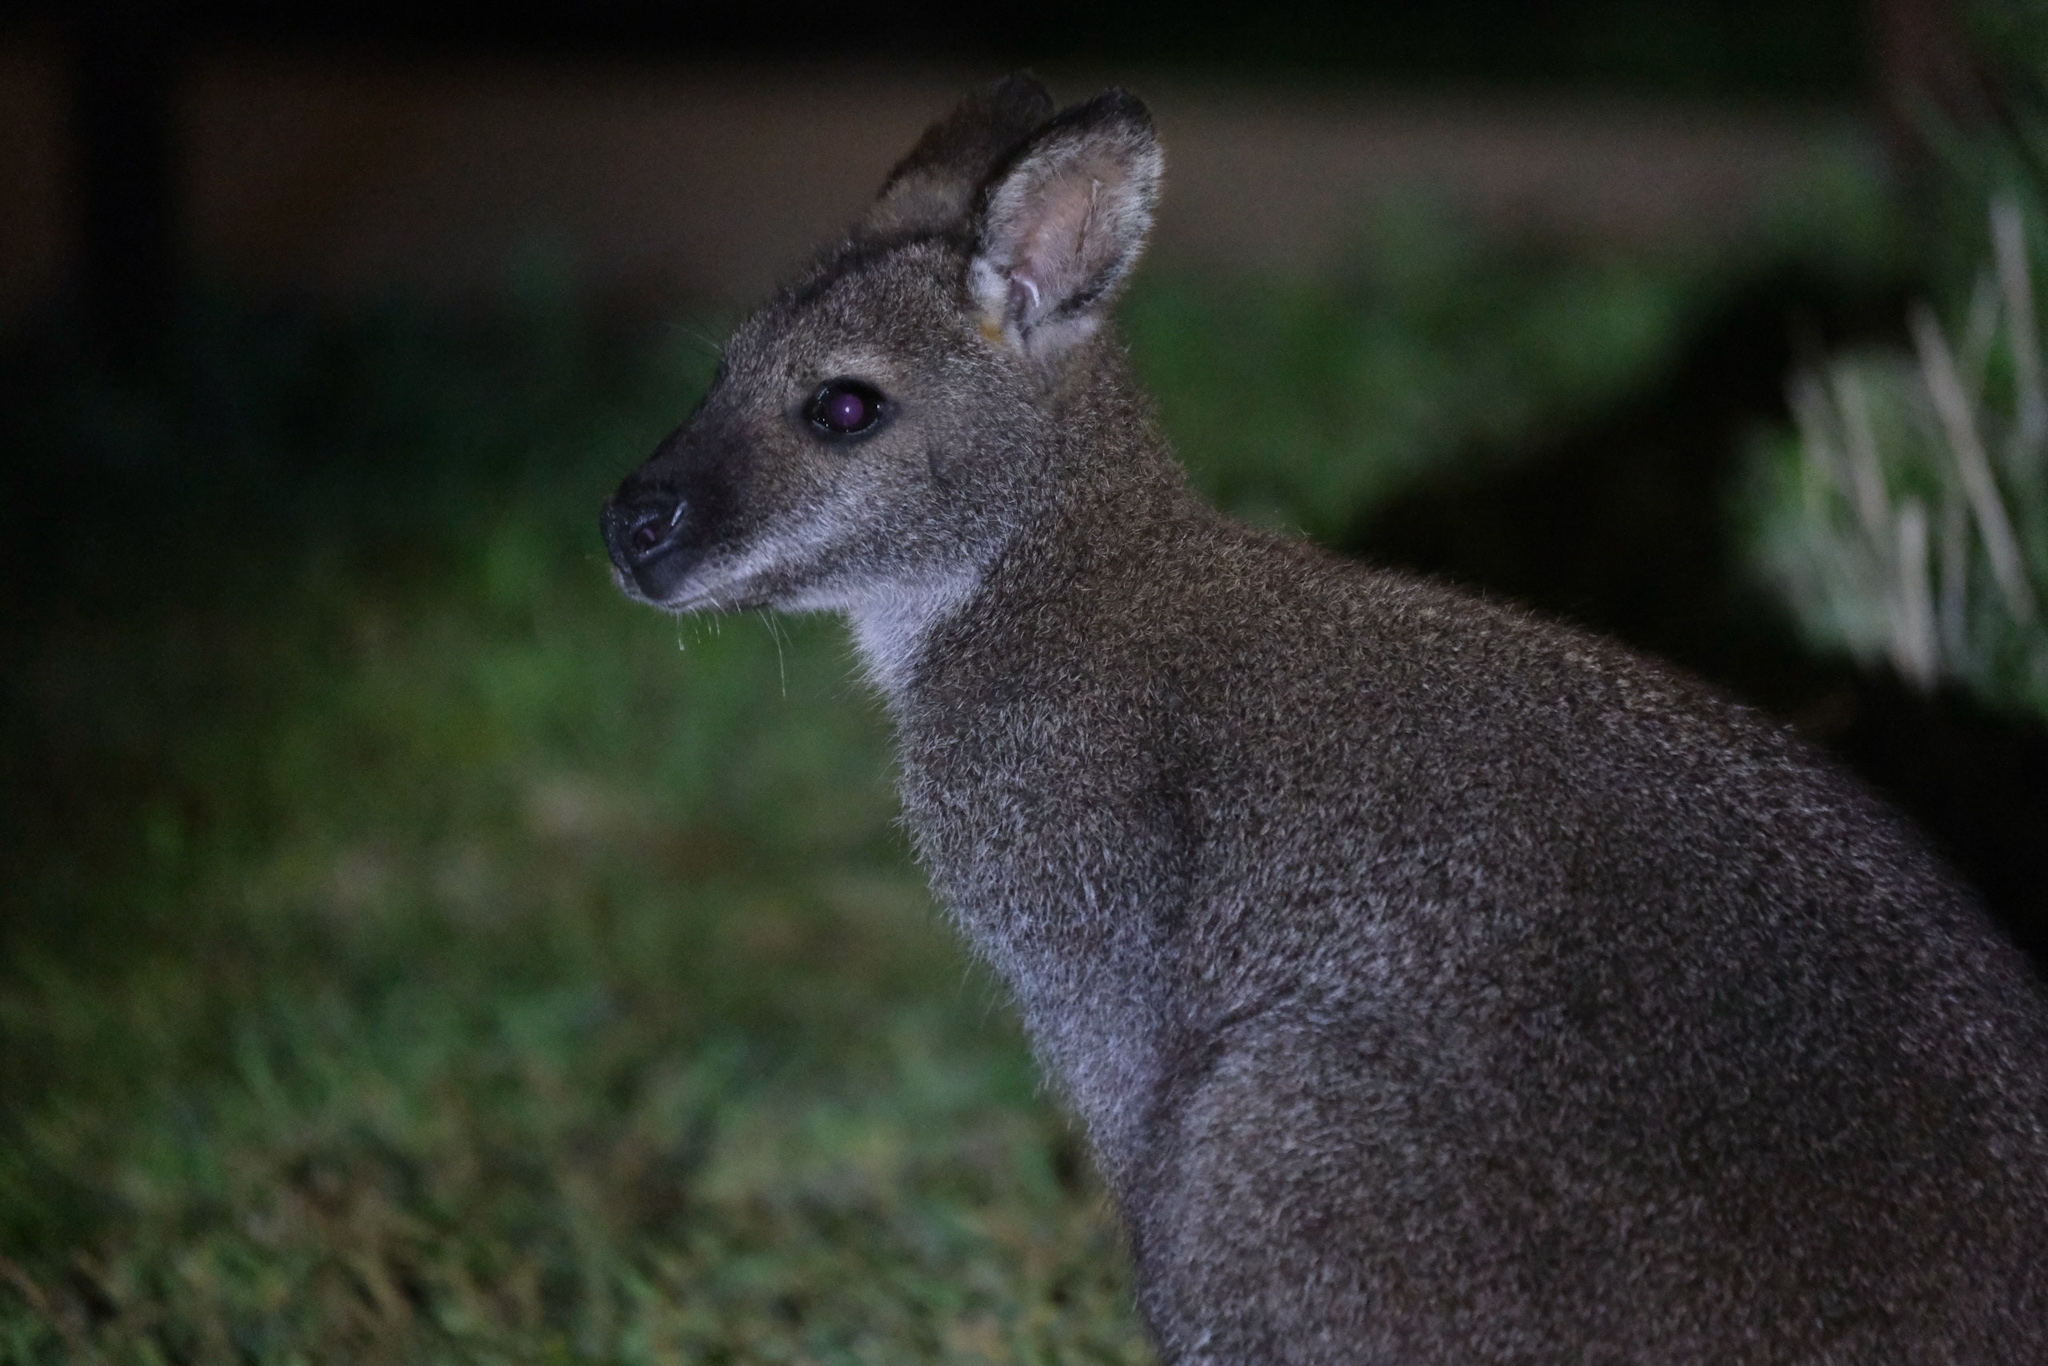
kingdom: Animalia
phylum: Chordata
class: Mammalia
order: Diprotodontia
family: Macropodidae
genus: Notamacropus
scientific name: Notamacropus rufogriseus
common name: Red-necked wallaby
